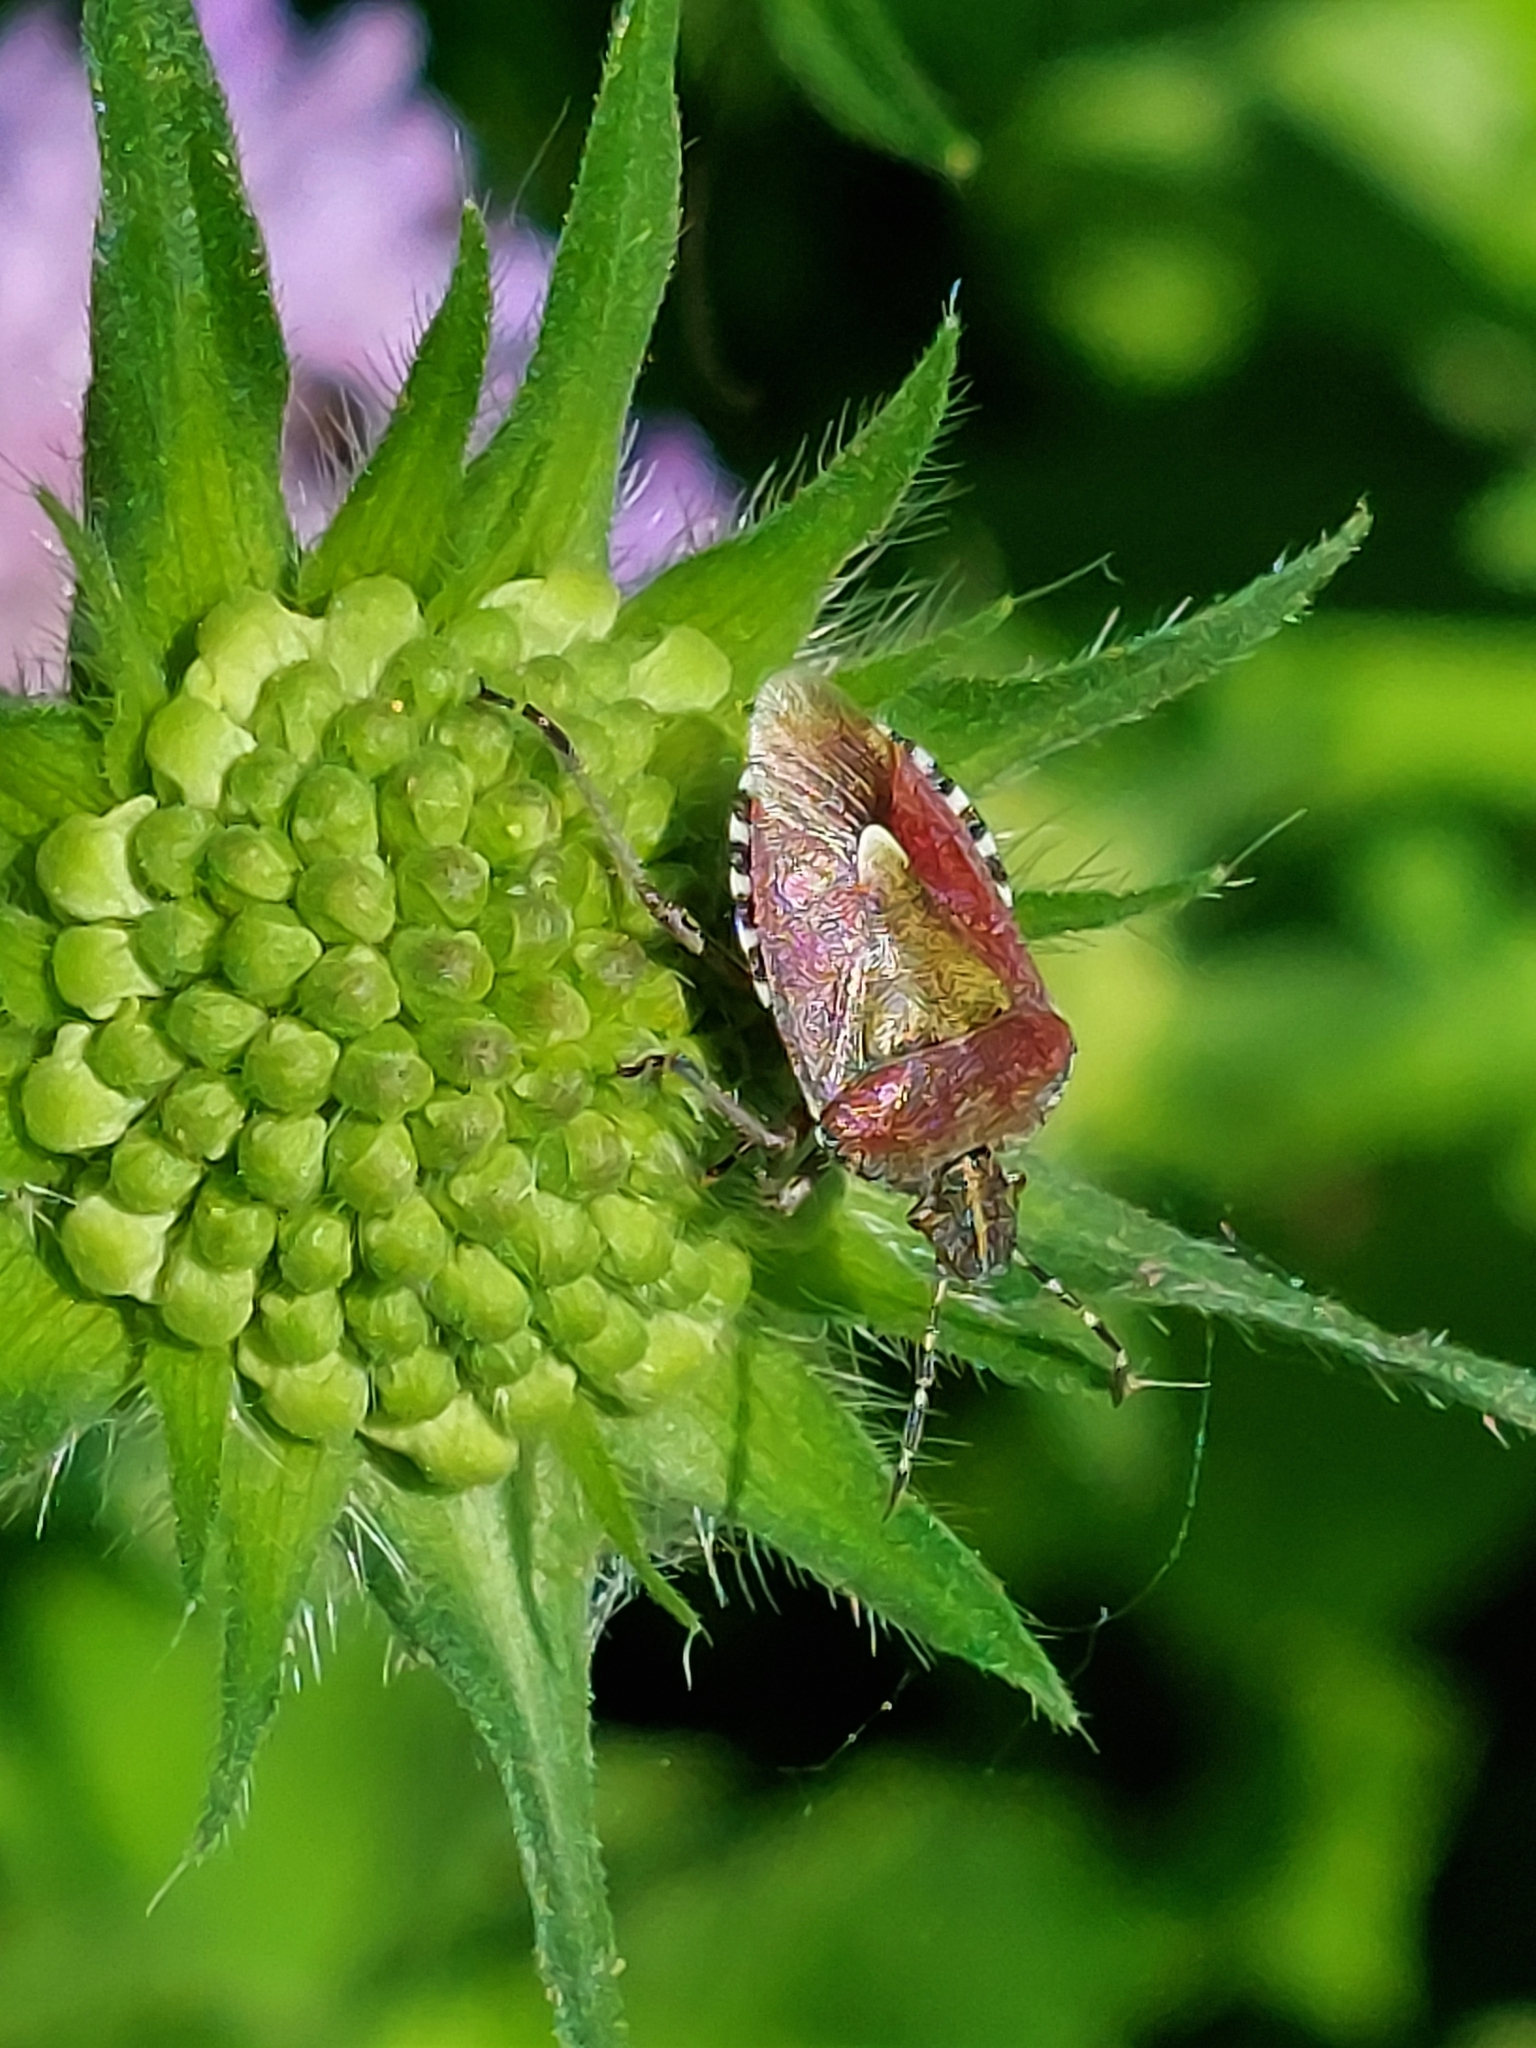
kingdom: Animalia
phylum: Arthropoda
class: Insecta
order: Hemiptera
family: Pentatomidae
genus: Dolycoris
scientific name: Dolycoris baccarum
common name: Sloe bug
